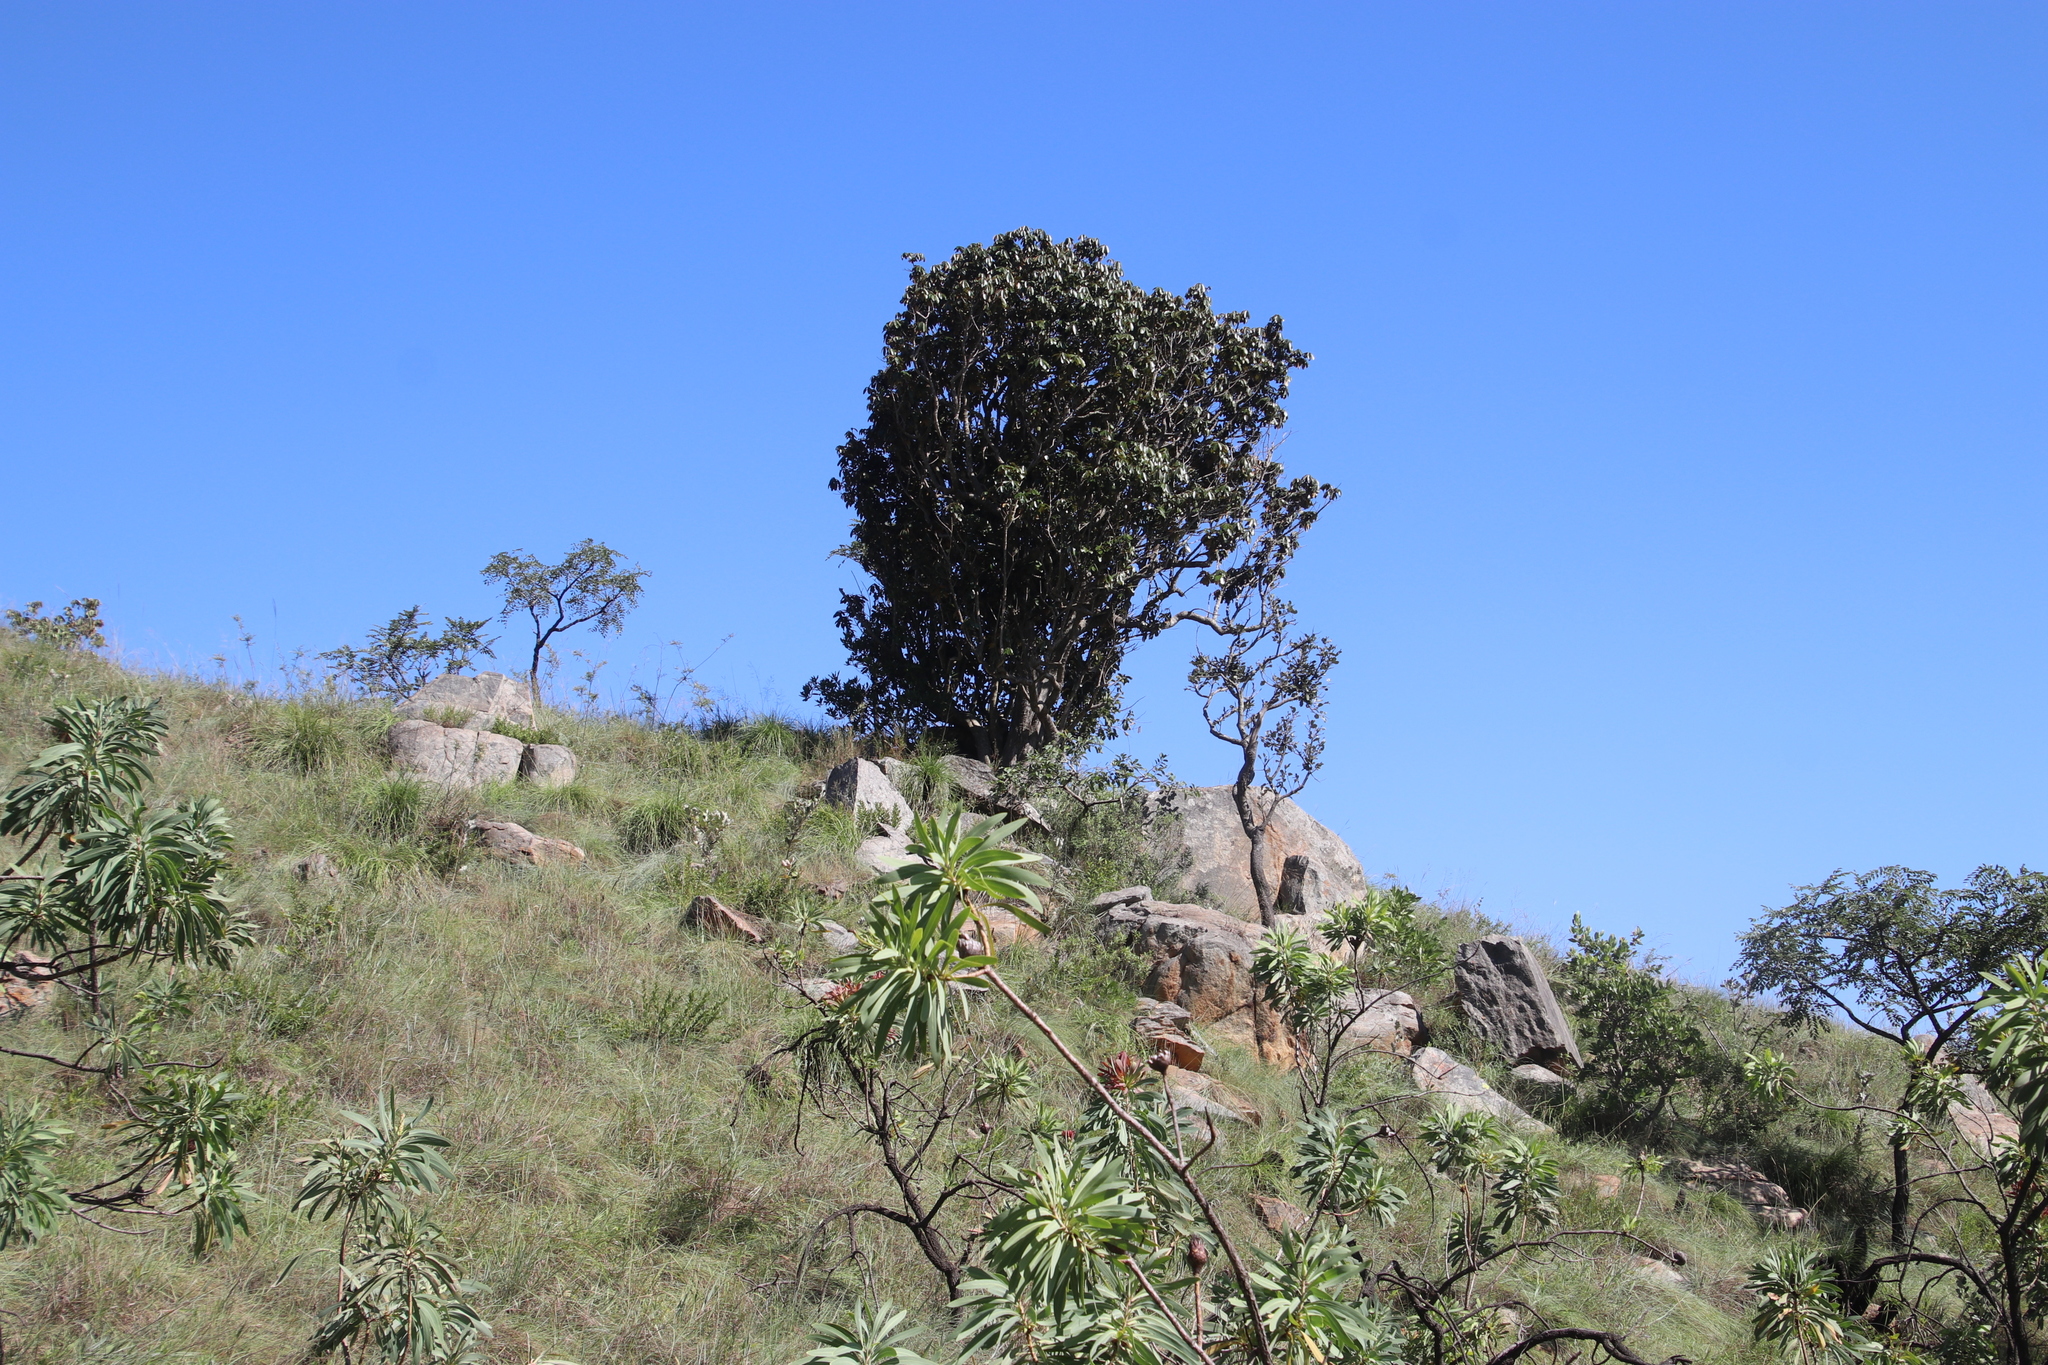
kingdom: Plantae
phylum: Tracheophyta
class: Magnoliopsida
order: Ericales
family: Sapotaceae
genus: Englerophytum
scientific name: Englerophytum magalismontanum
